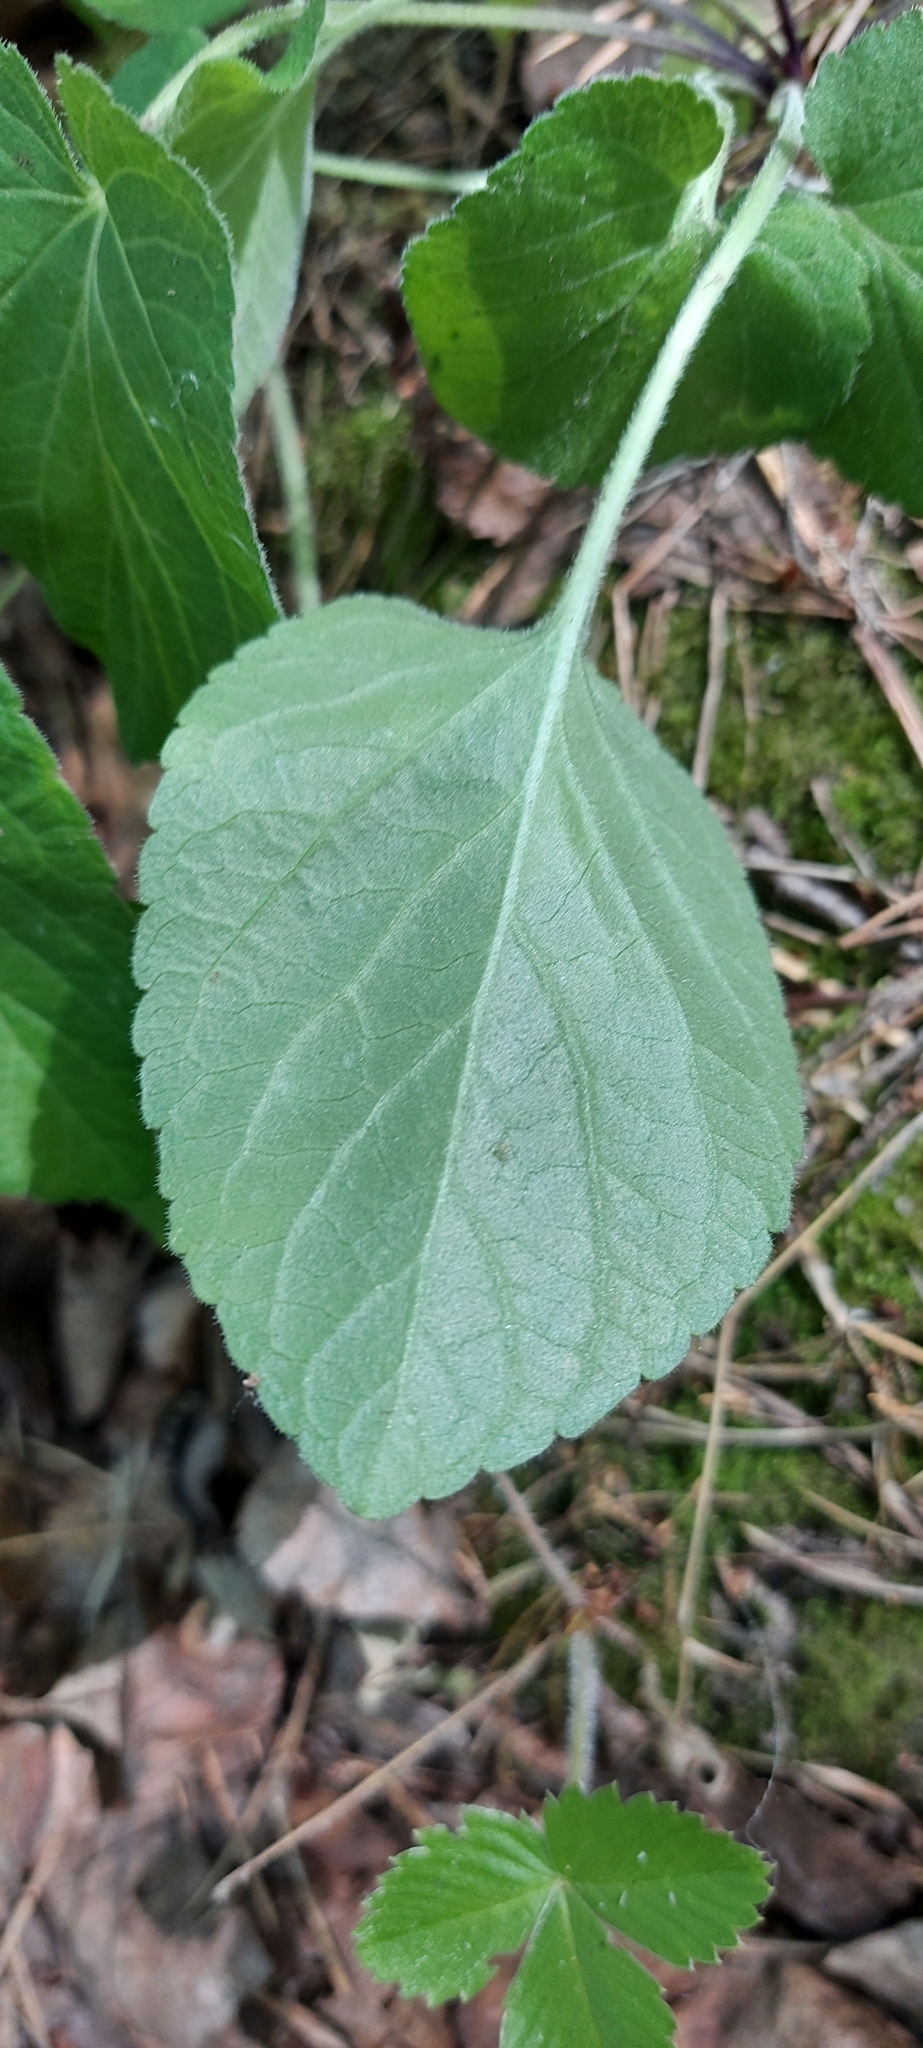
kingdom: Plantae
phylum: Tracheophyta
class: Magnoliopsida
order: Malpighiales
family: Violaceae
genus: Viola
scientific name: Viola hirta
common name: Hairy violet
